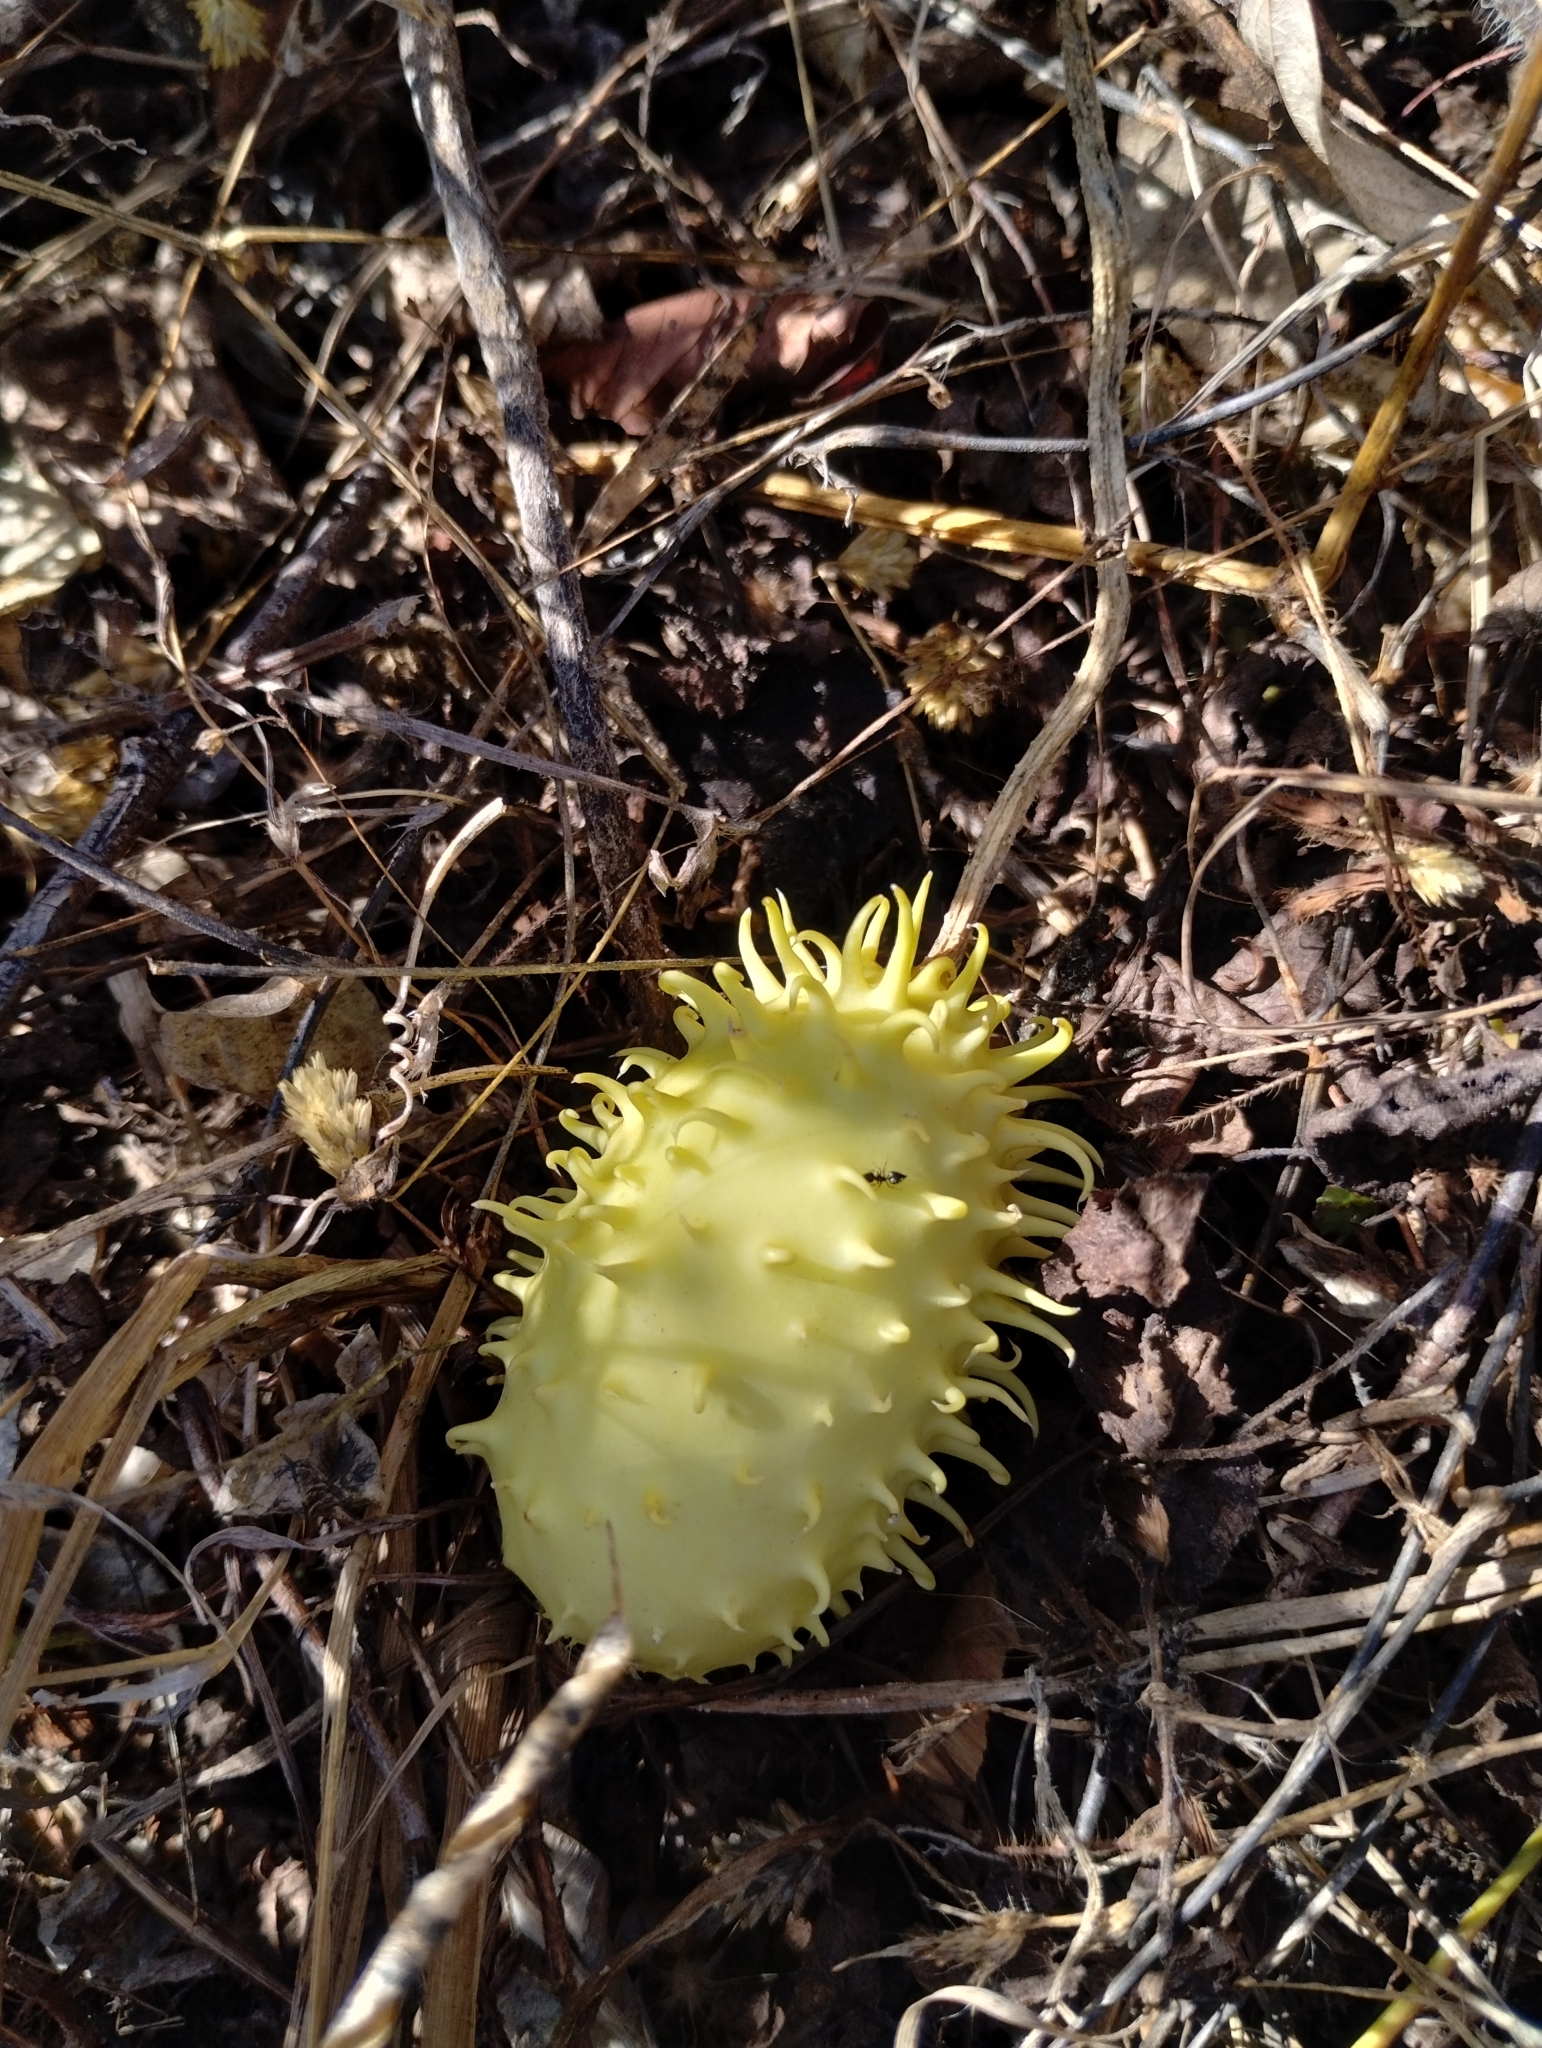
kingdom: Plantae
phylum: Tracheophyta
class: Magnoliopsida
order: Cucurbitales
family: Cucurbitaceae
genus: Cucumis
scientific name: Cucumis anguria
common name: West indian gherkin
